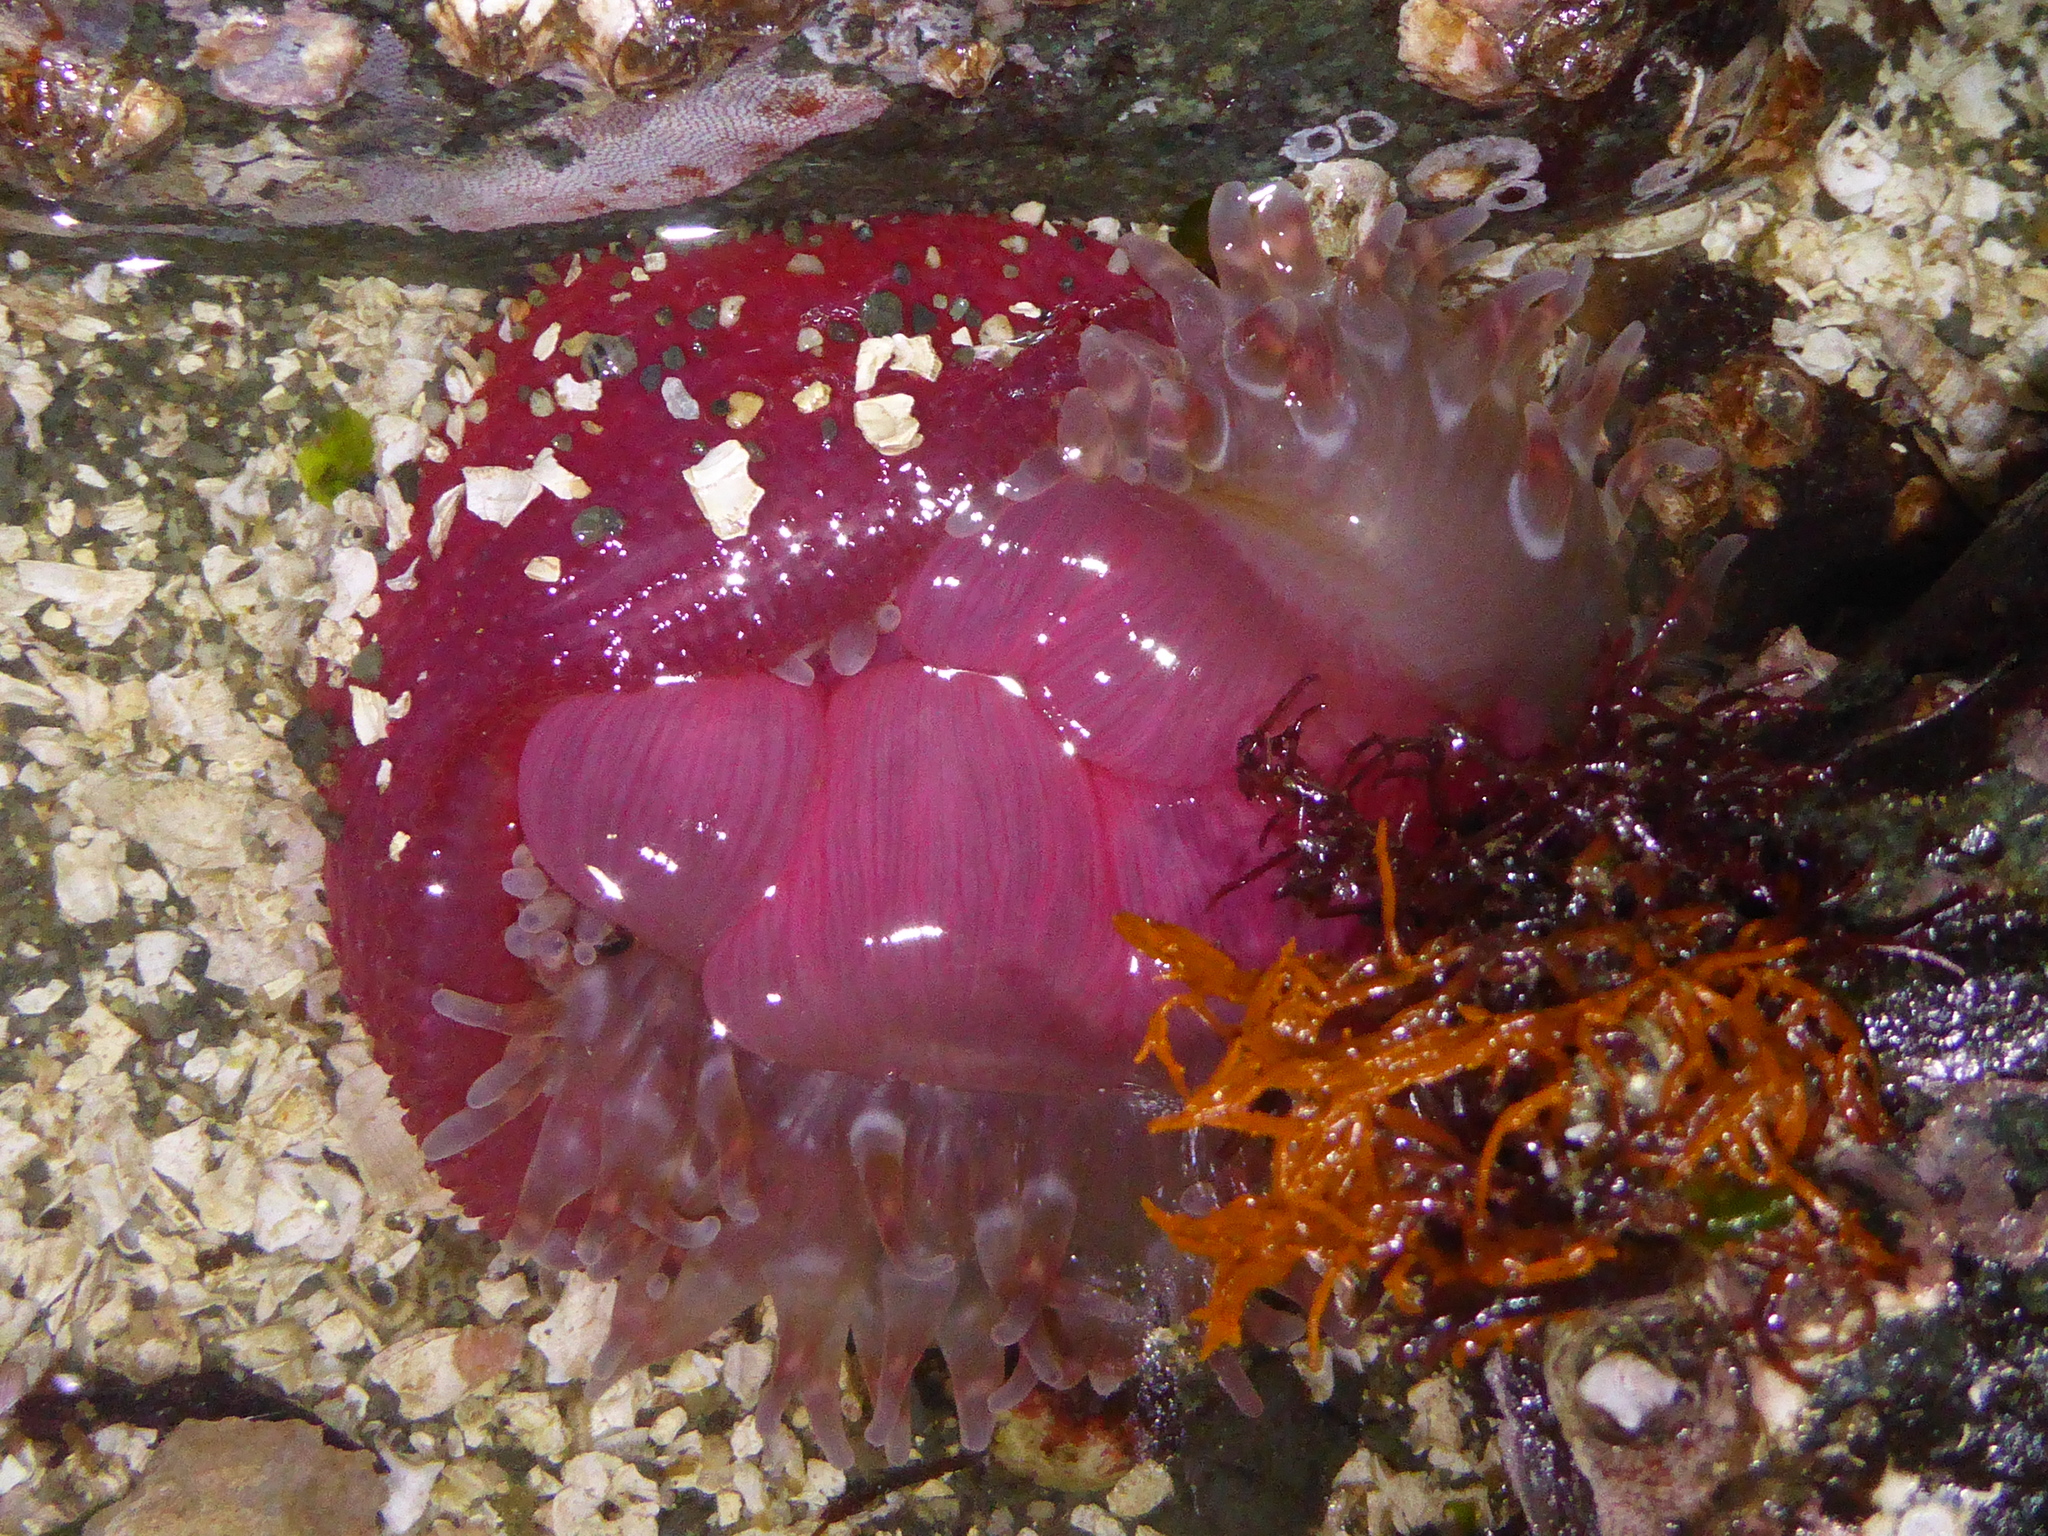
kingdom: Animalia
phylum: Cnidaria
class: Anthozoa
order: Actiniaria
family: Actiniidae
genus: Urticina
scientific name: Urticina clandestina
